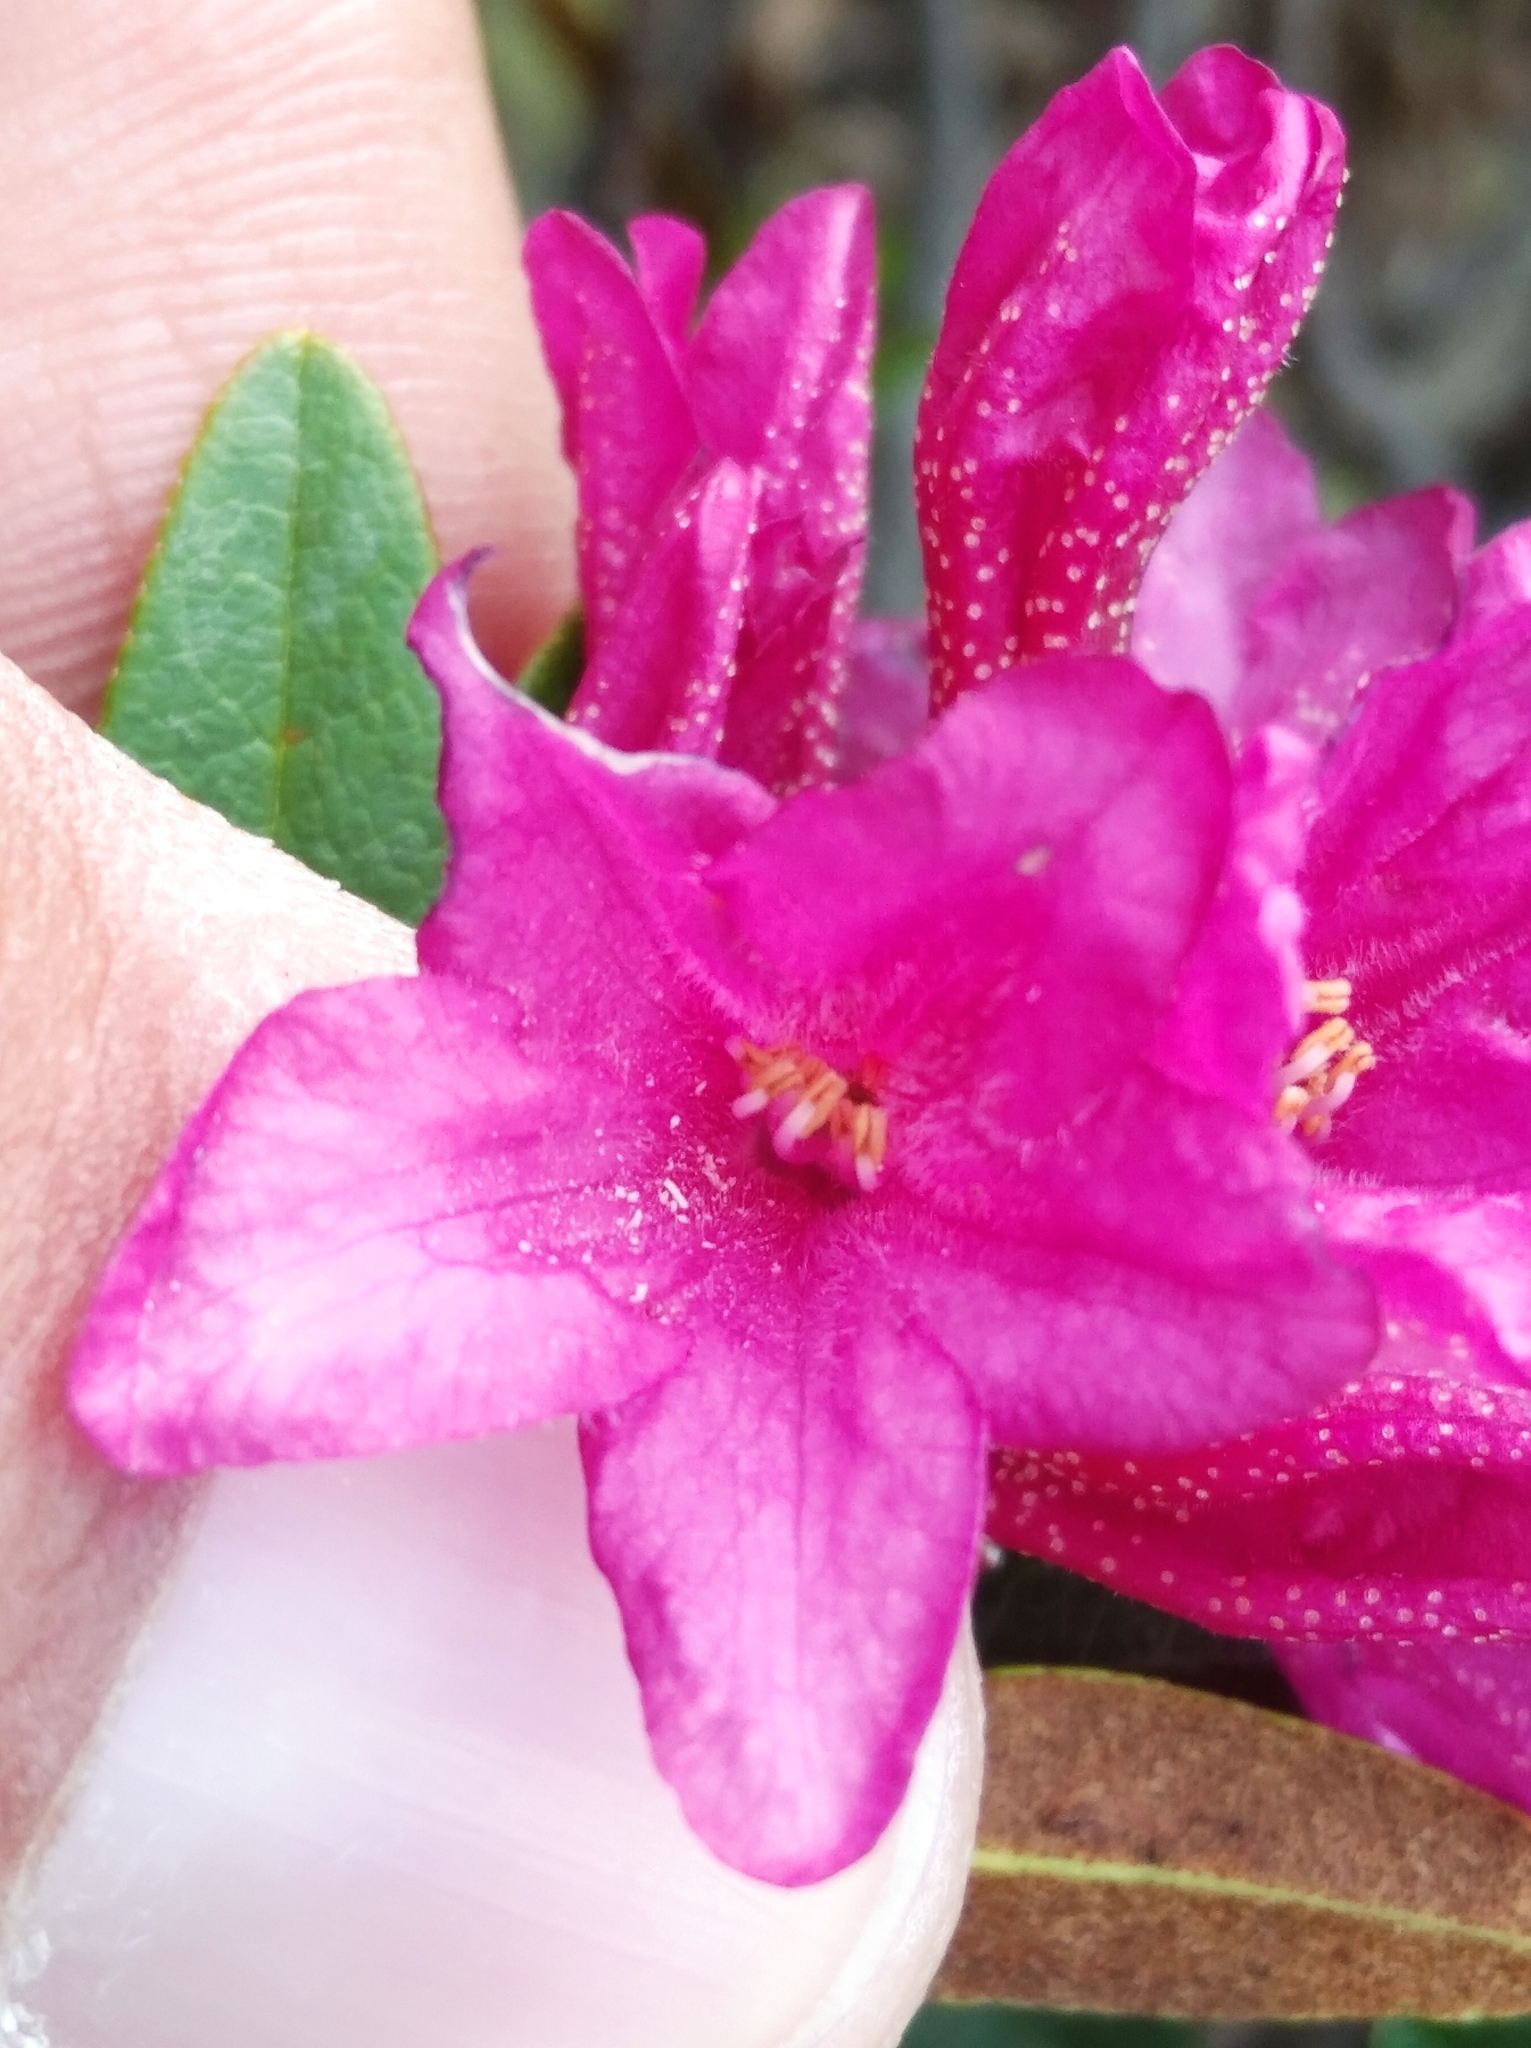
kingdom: Plantae
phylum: Tracheophyta
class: Magnoliopsida
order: Ericales
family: Ericaceae
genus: Rhododendron
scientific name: Rhododendron ferrugineum
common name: Alpenrose
